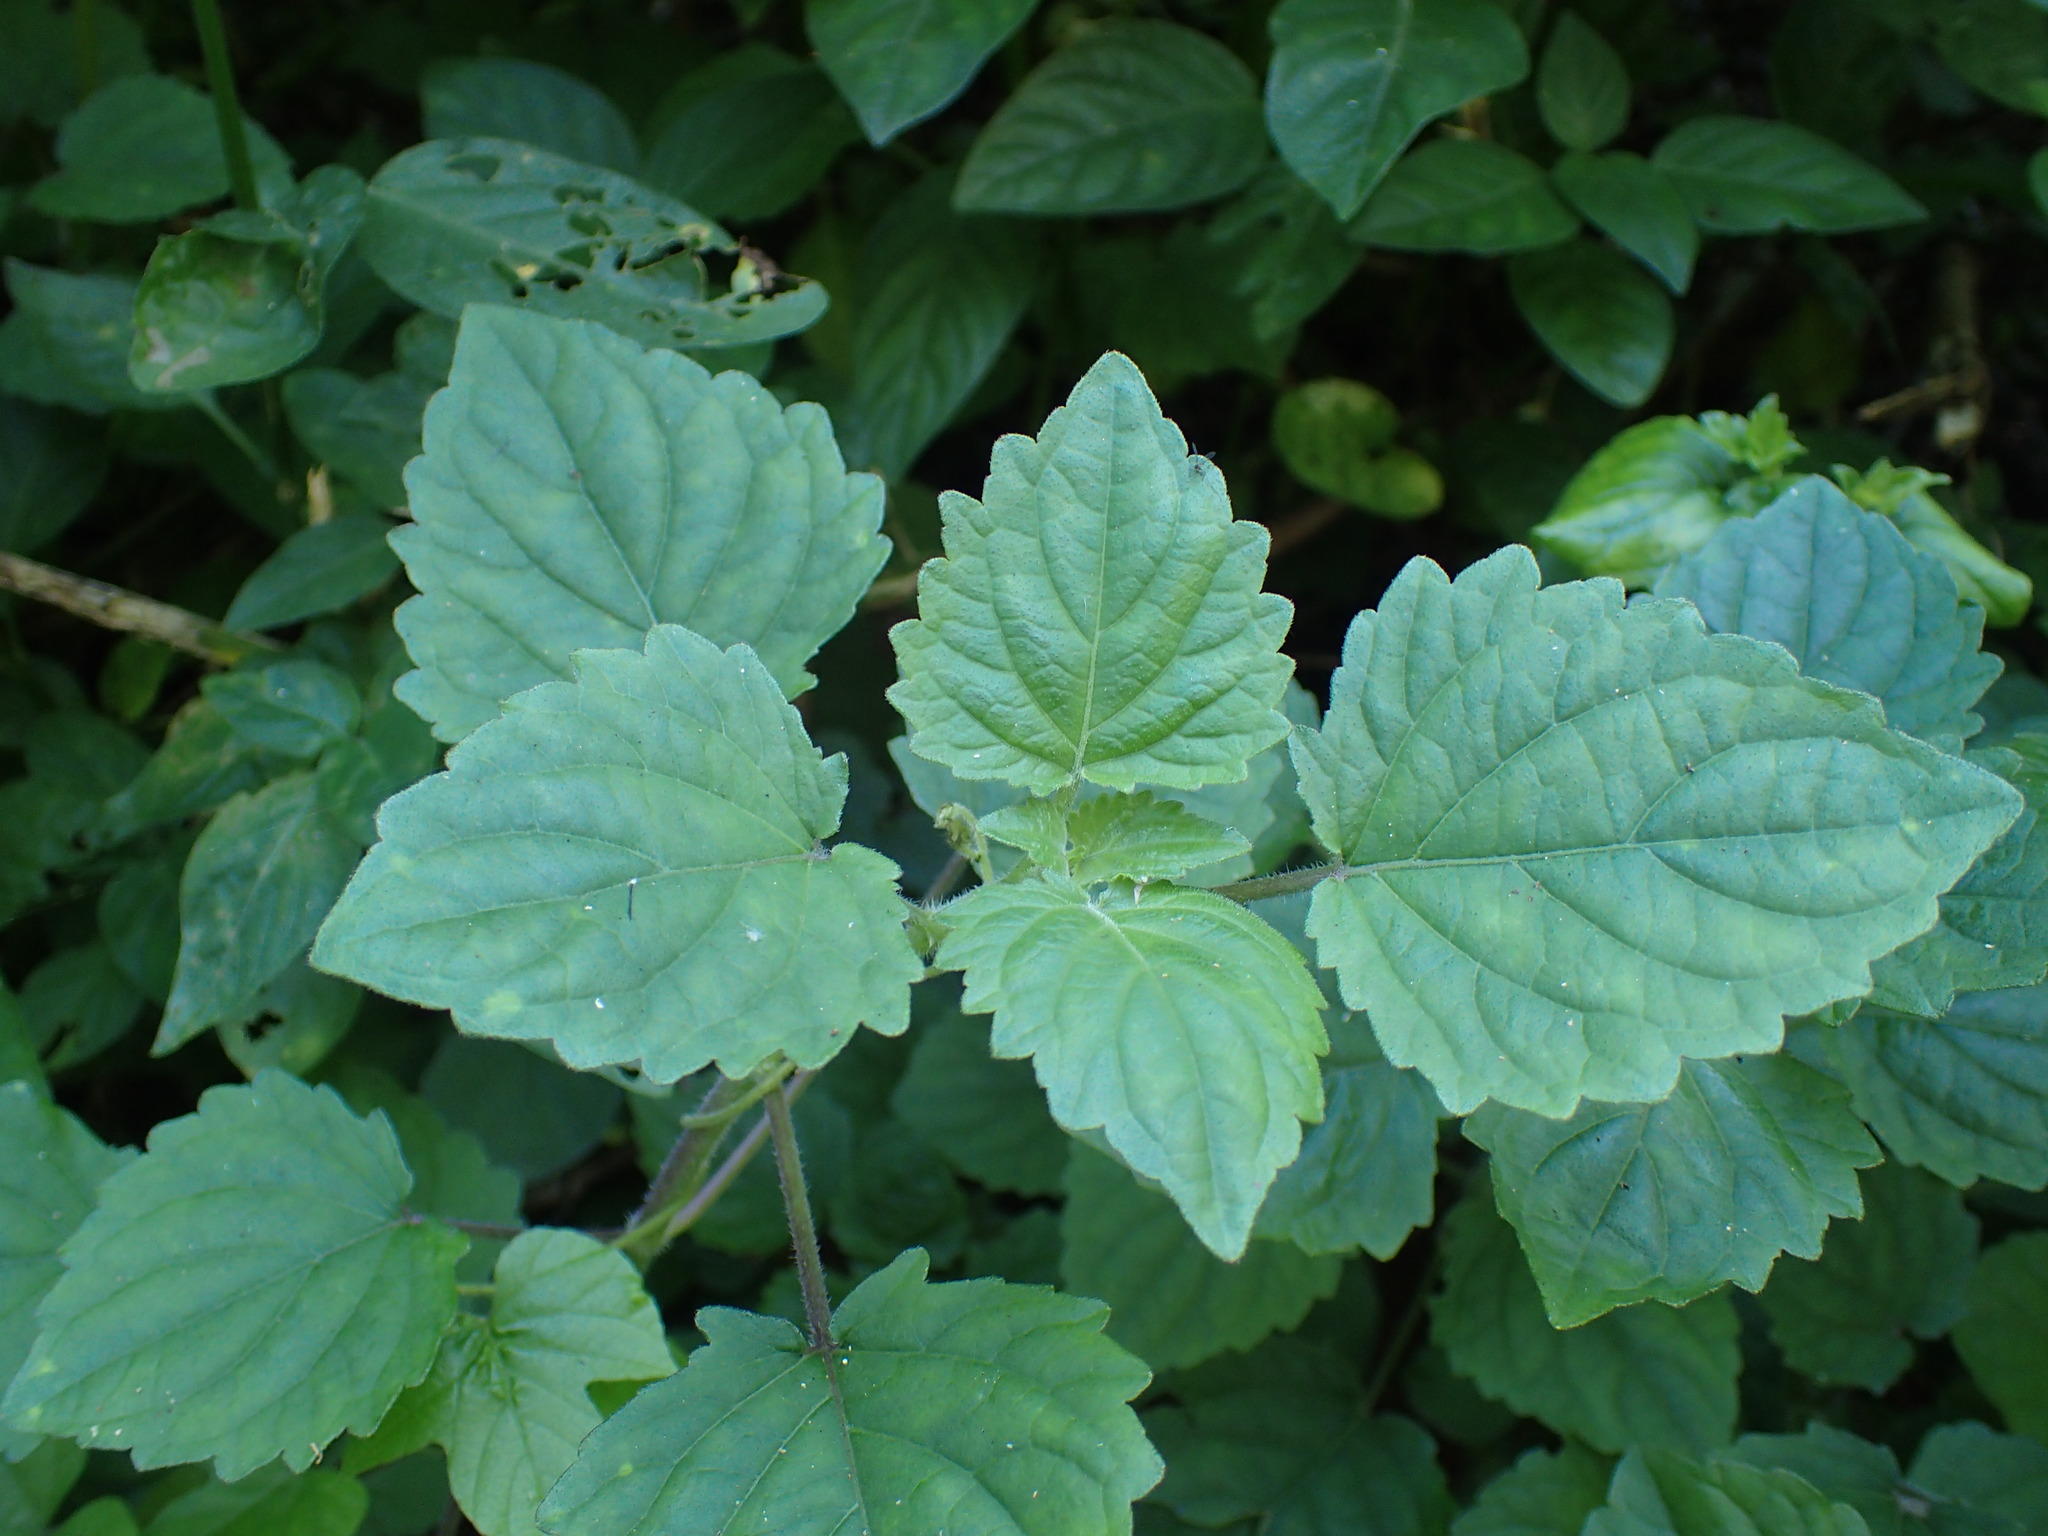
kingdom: Plantae
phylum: Tracheophyta
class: Magnoliopsida
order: Lamiales
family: Lamiaceae
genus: Equilabium
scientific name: Equilabium petiolare
